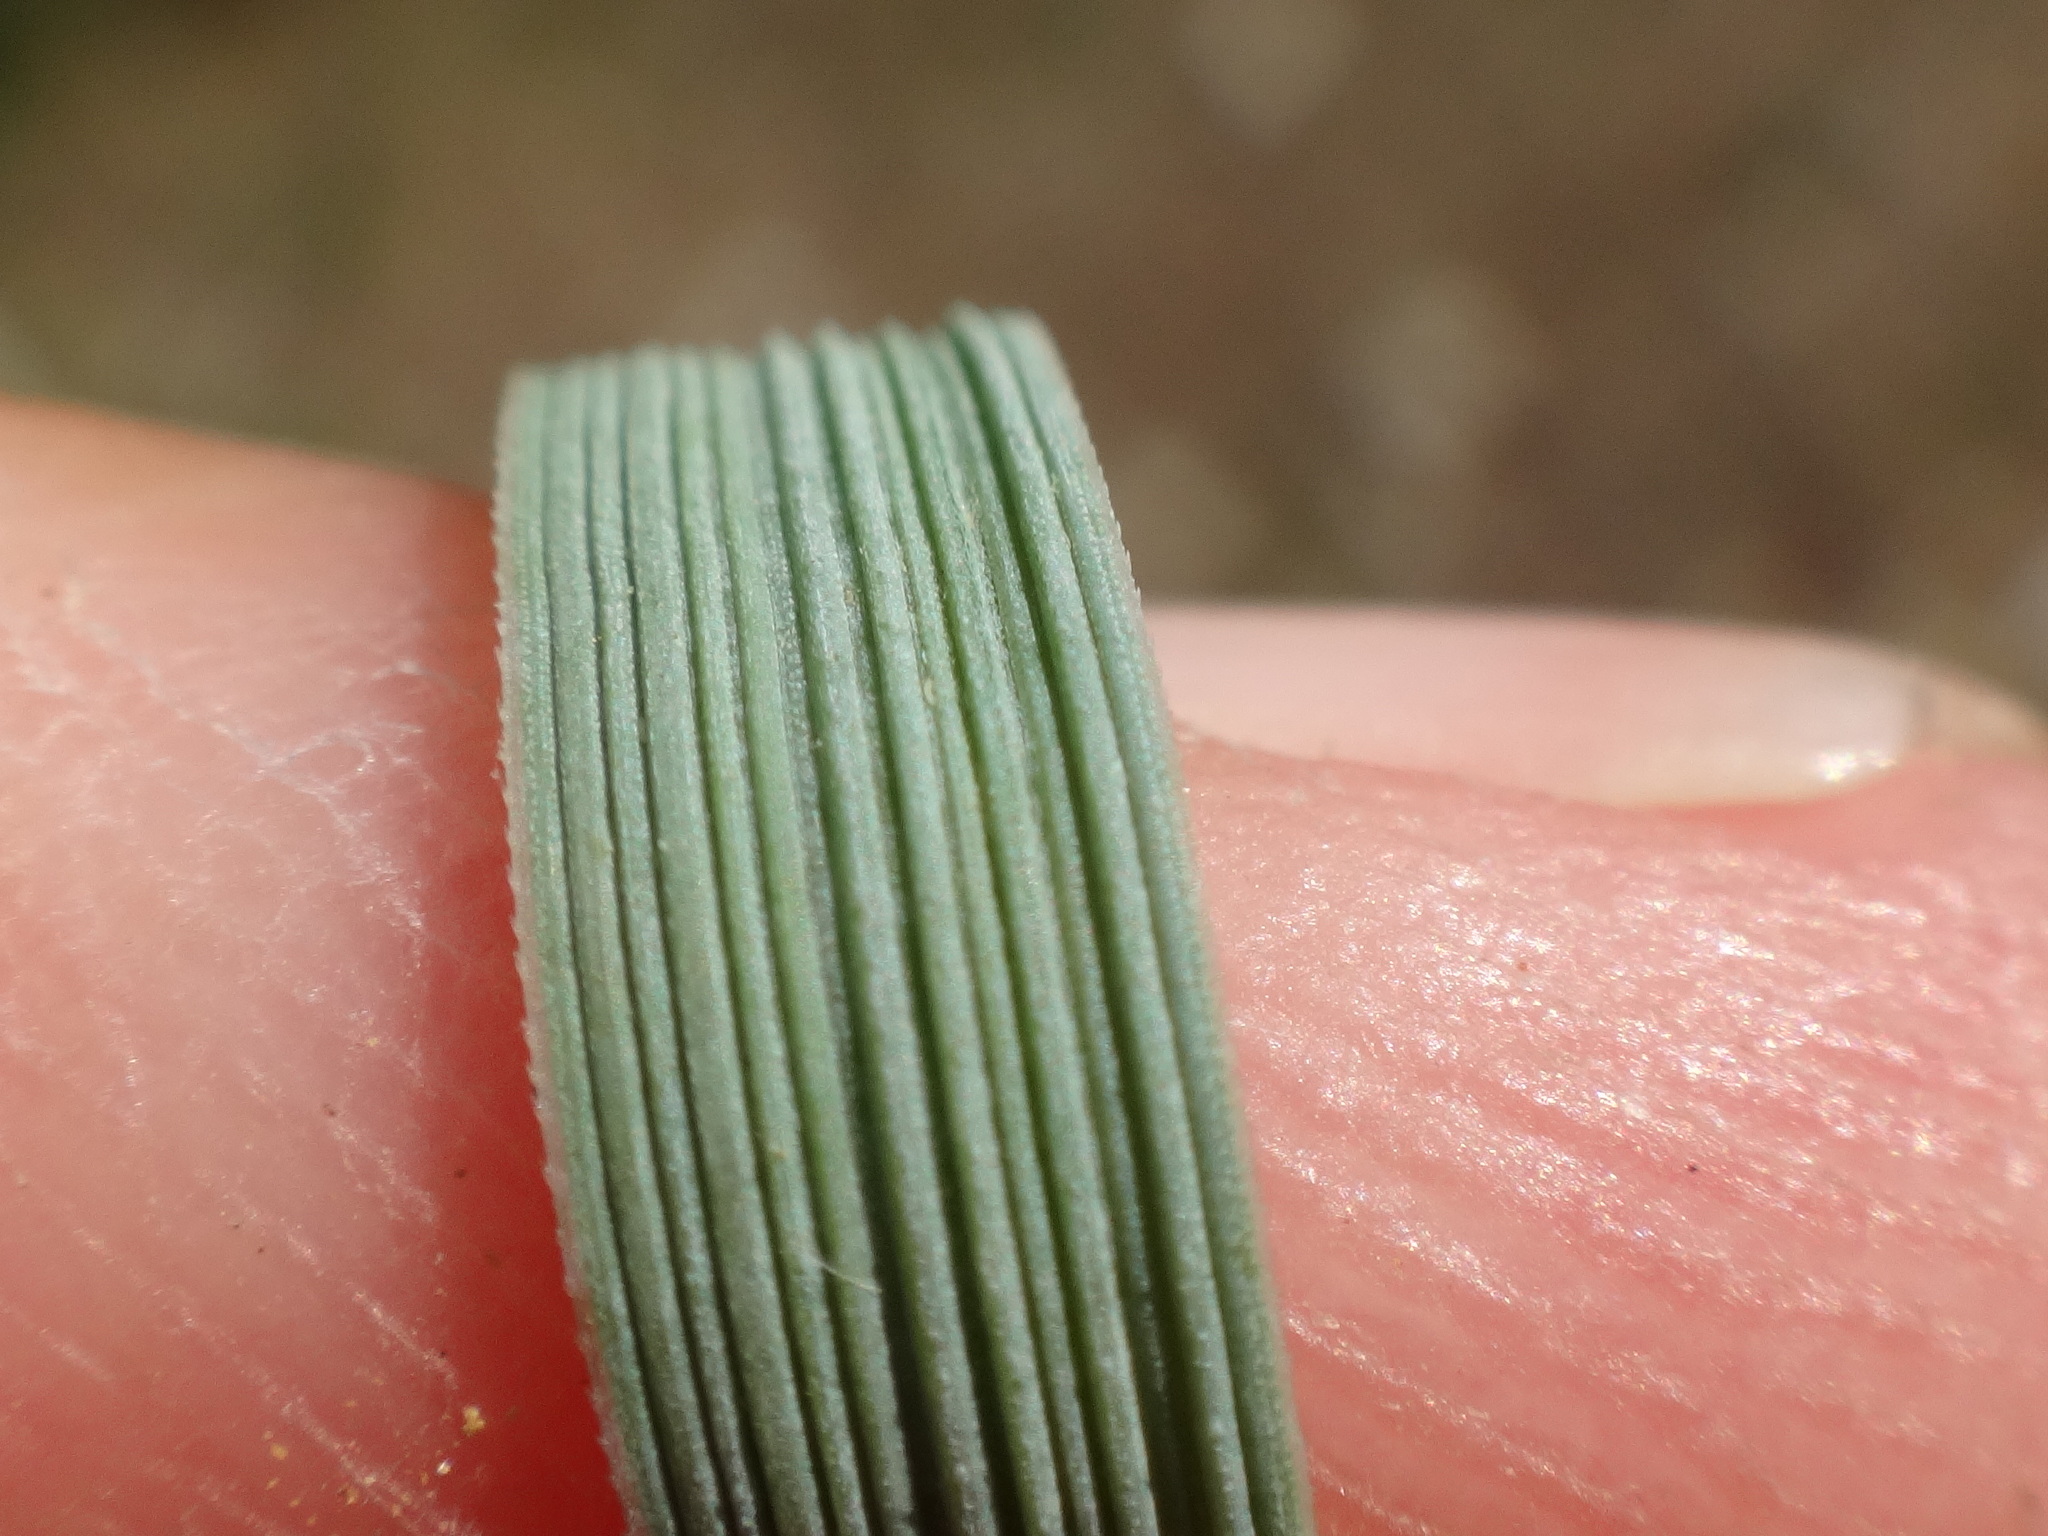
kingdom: Plantae
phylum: Tracheophyta
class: Liliopsida
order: Poales
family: Poaceae
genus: Elymus
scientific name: Elymus athericus
